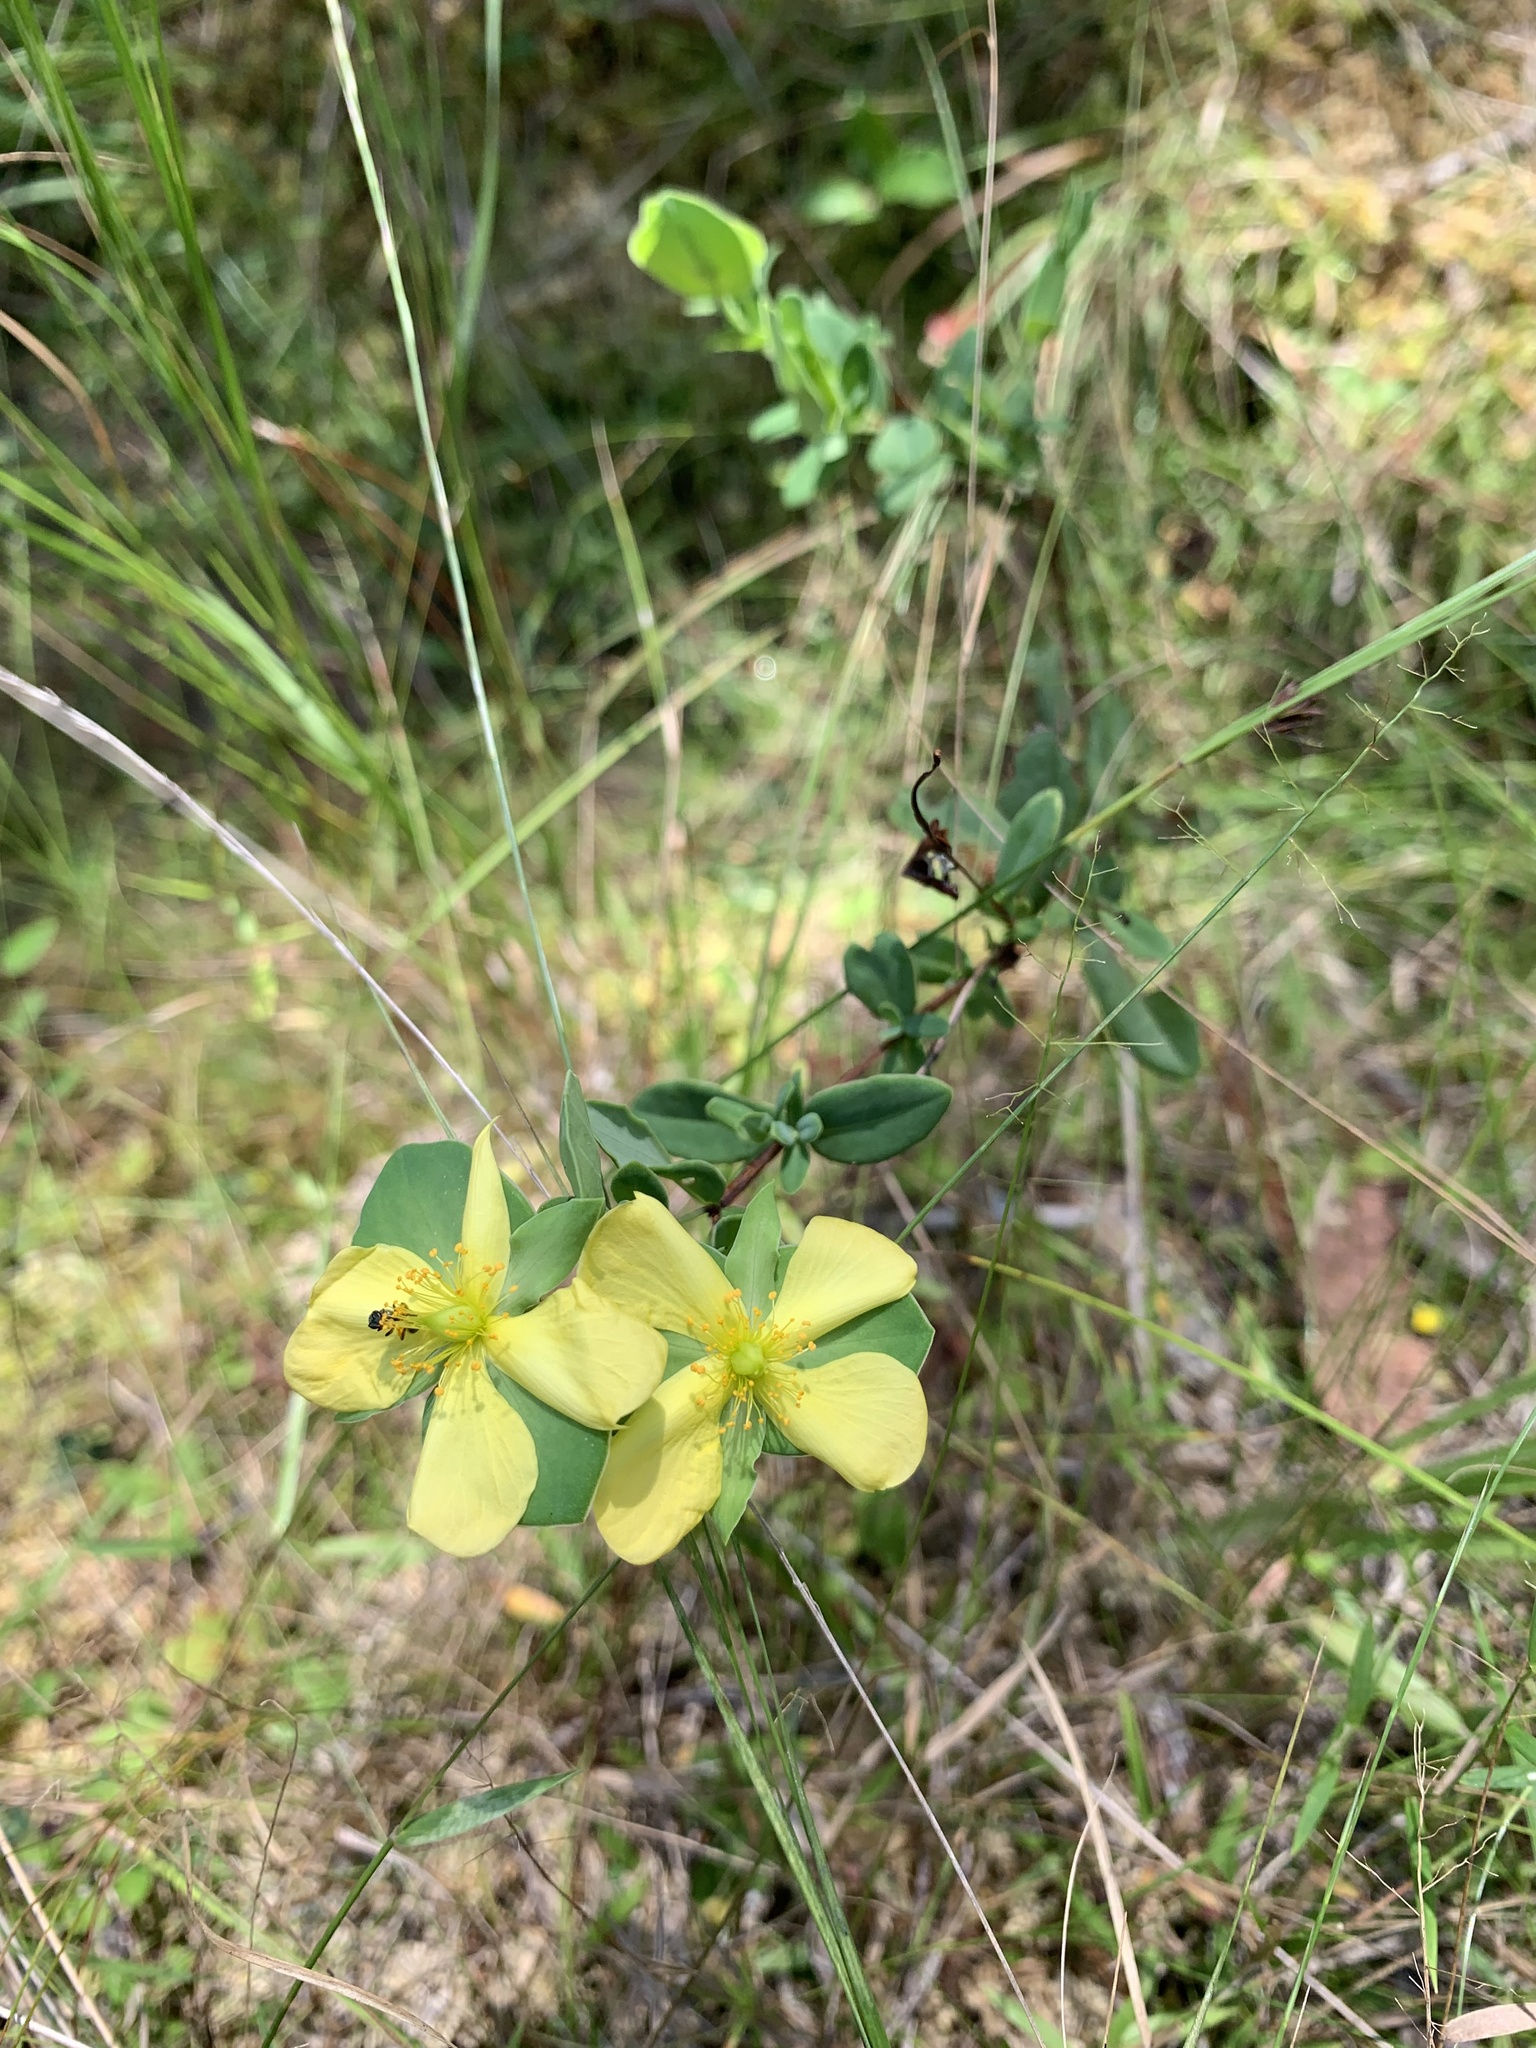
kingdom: Plantae
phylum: Tracheophyta
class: Magnoliopsida
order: Malpighiales
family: Hypericaceae
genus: Hypericum
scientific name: Hypericum crux-andreae
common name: St.-peter's-wort
